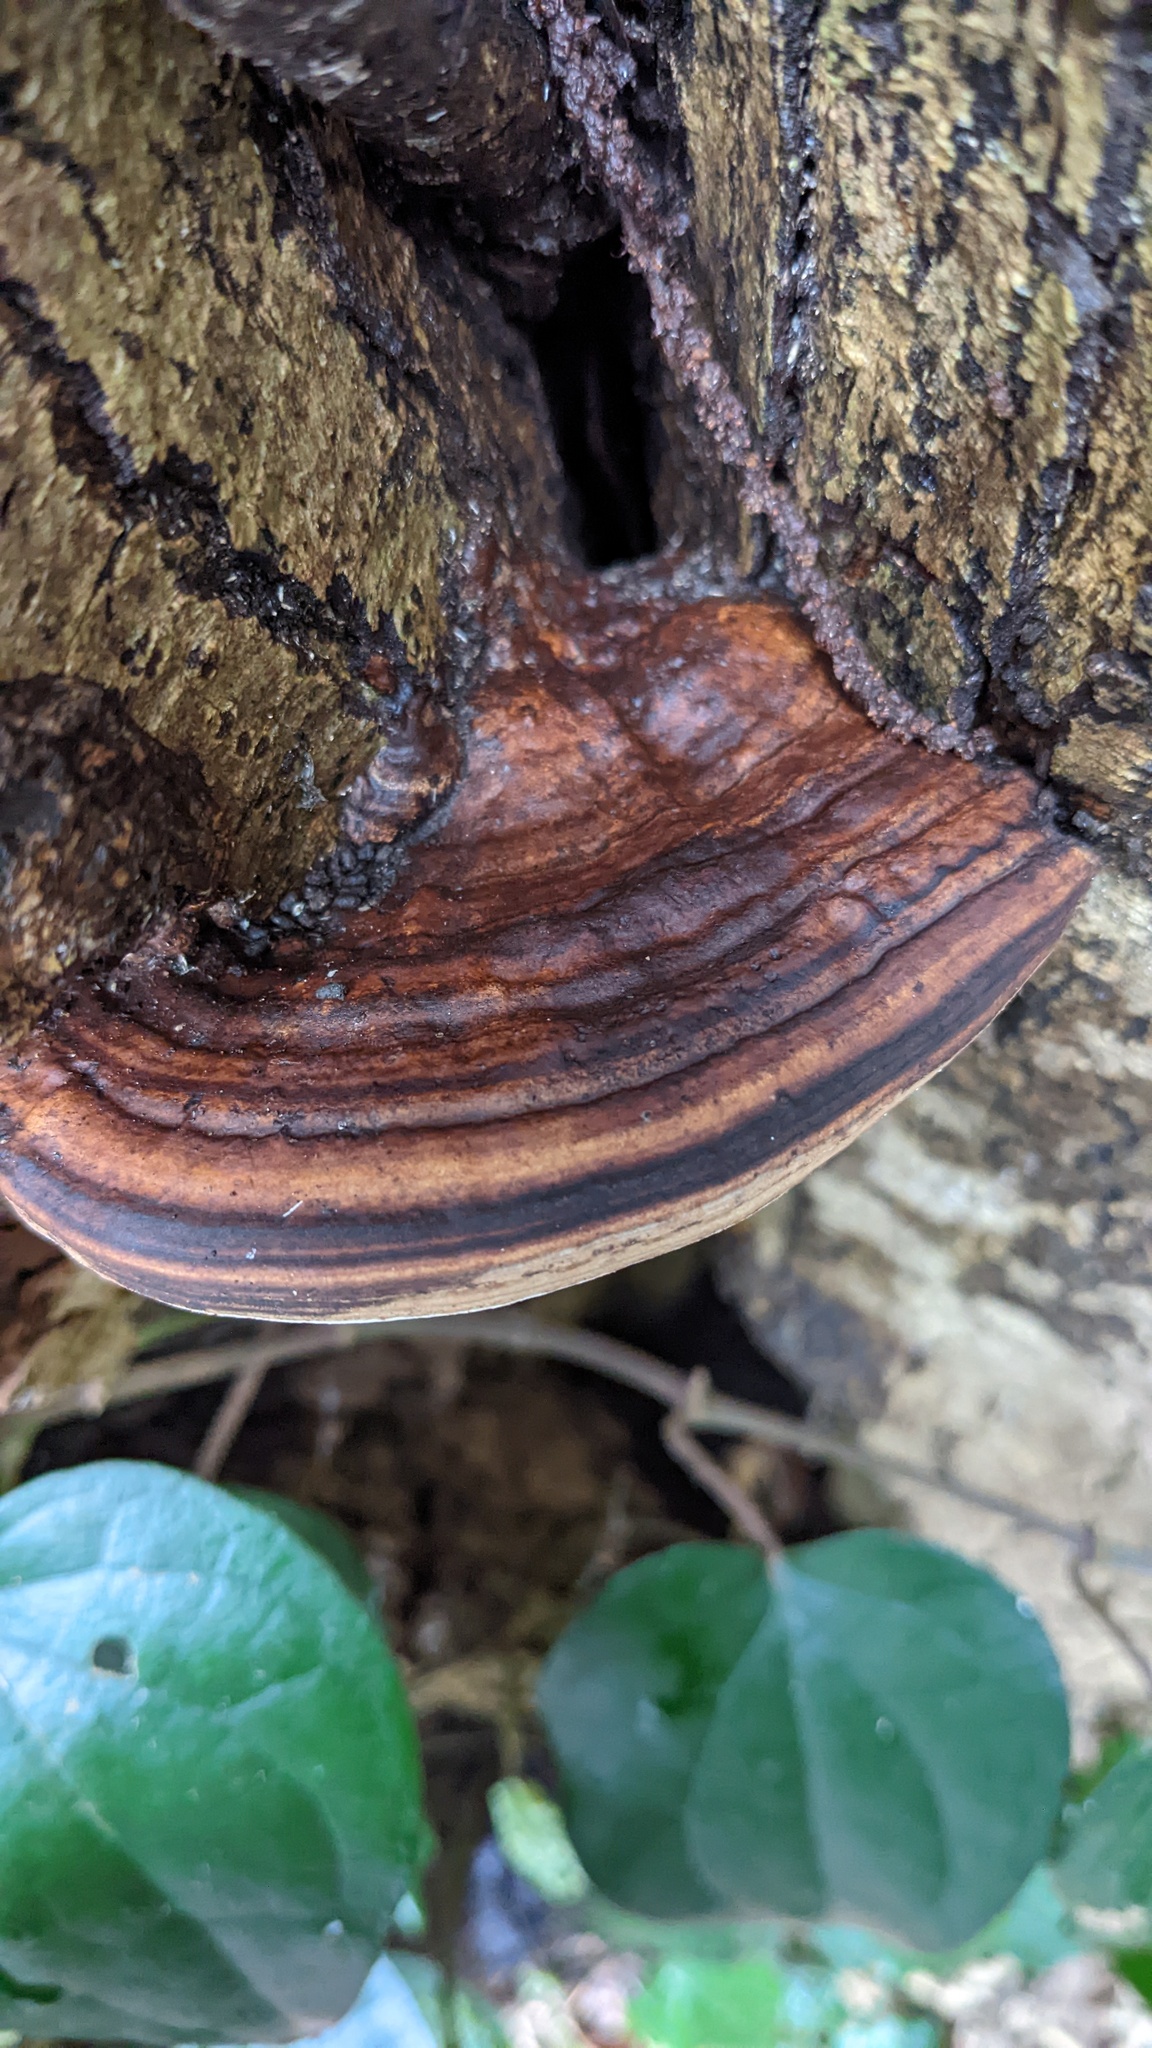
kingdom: Fungi
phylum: Basidiomycota
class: Agaricomycetes
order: Polyporales
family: Polyporaceae
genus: Ganoderma
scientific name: Ganoderma applanatum
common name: Artist's bracket
